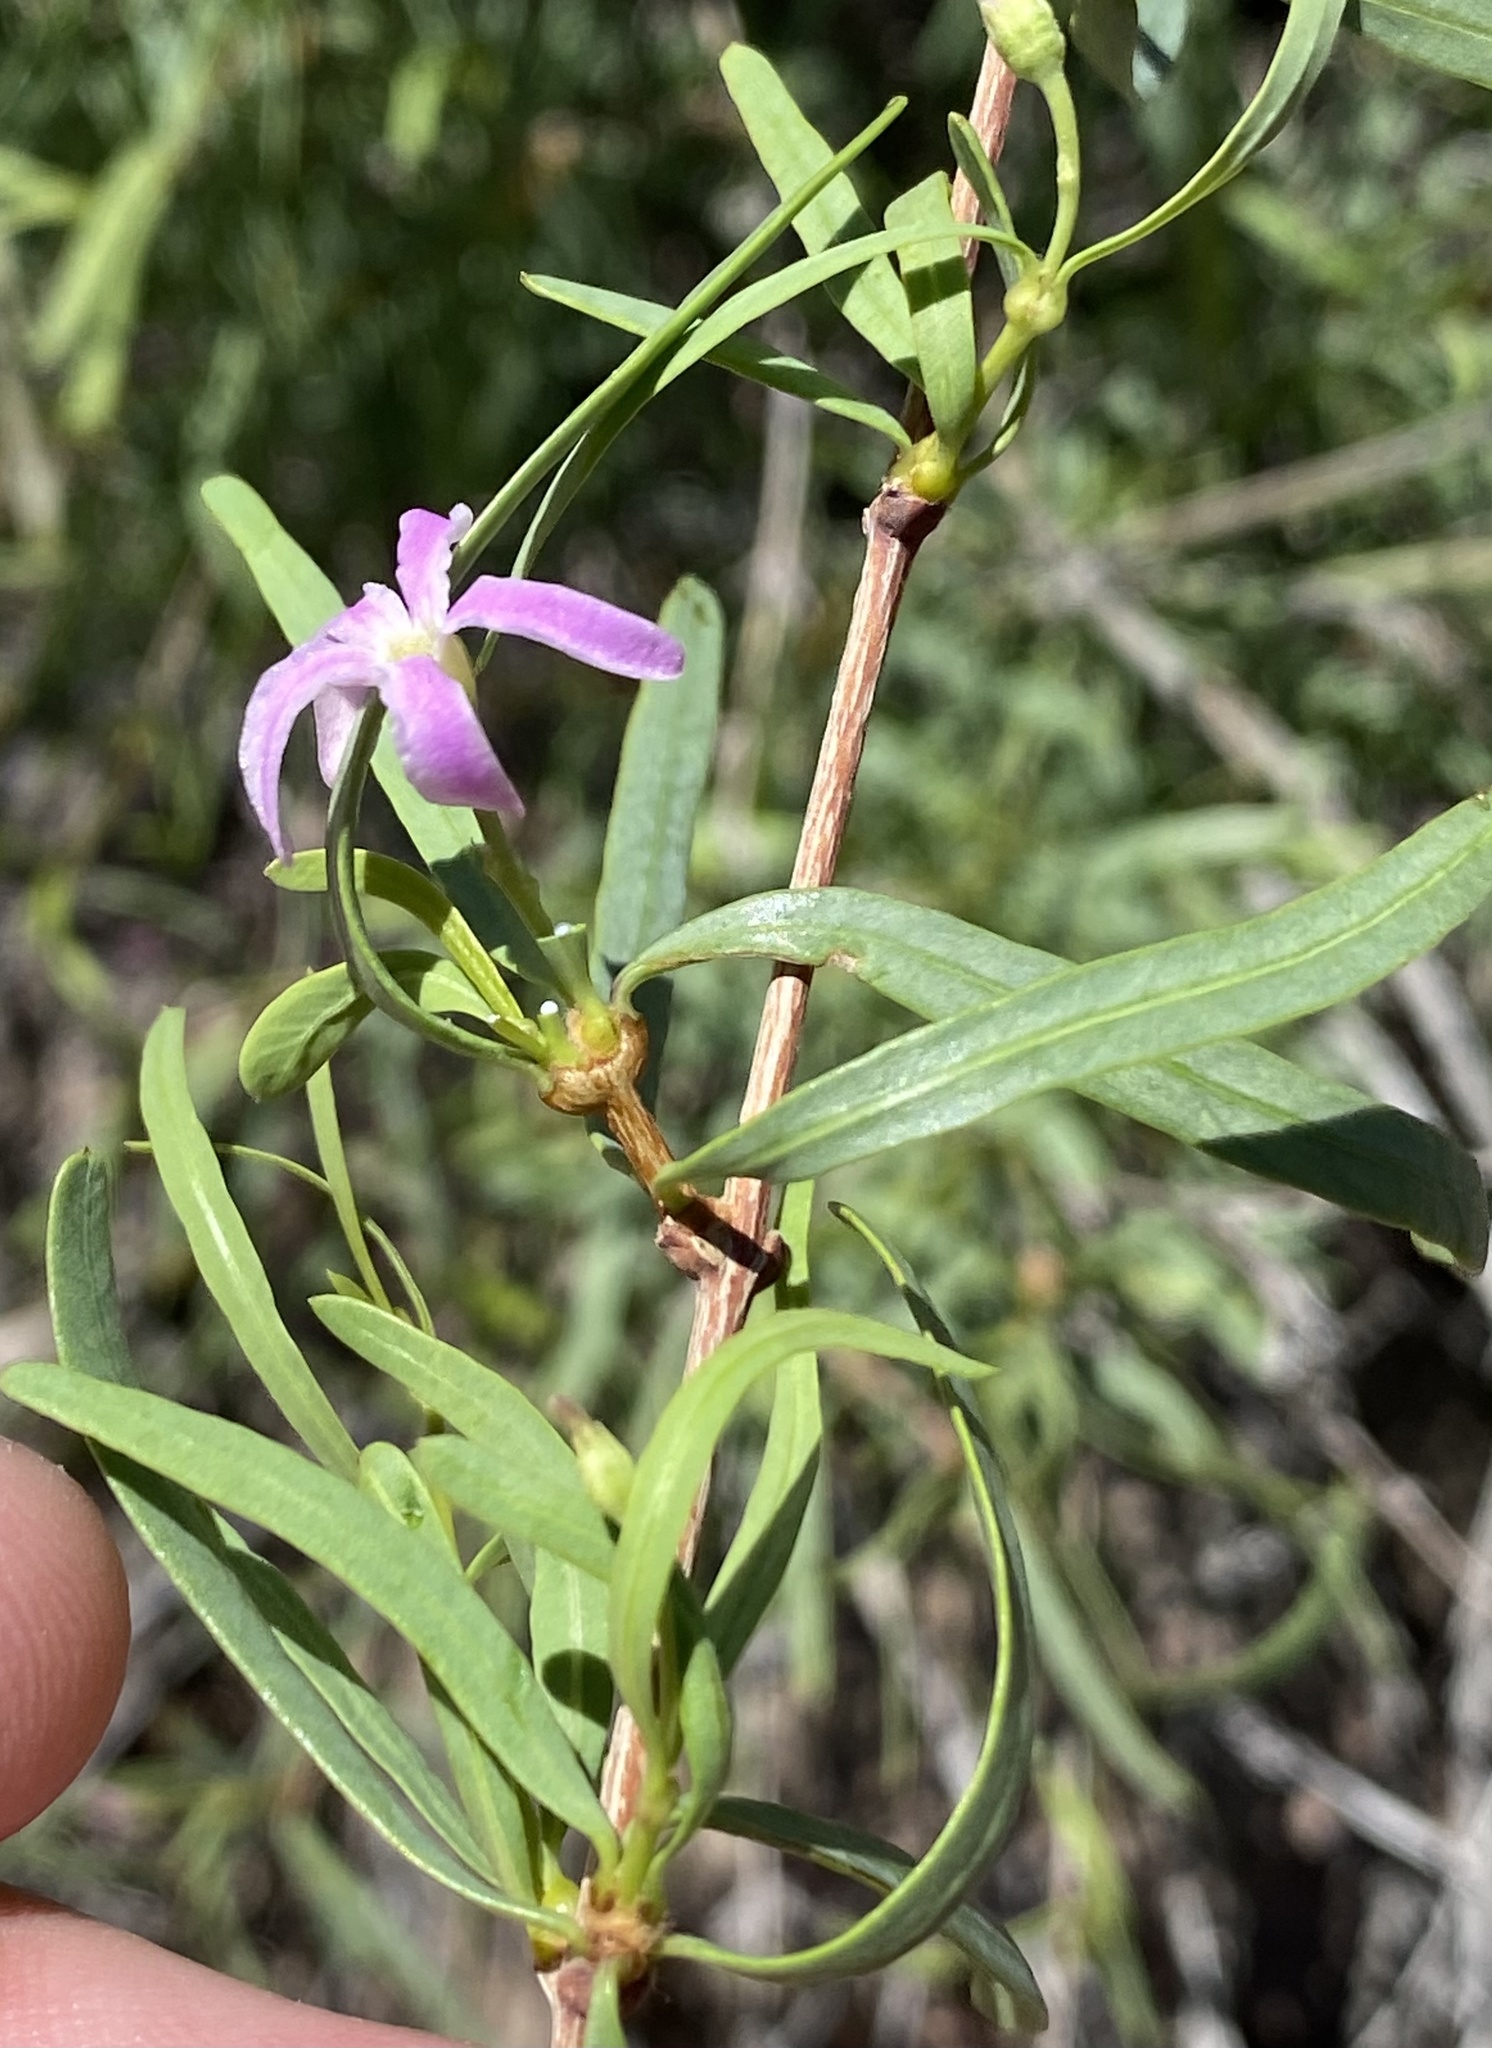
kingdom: Plantae
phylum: Tracheophyta
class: Magnoliopsida
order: Gentianales
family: Apocynaceae
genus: Cryptolepis
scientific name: Cryptolepis decidua
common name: Jackalplant
